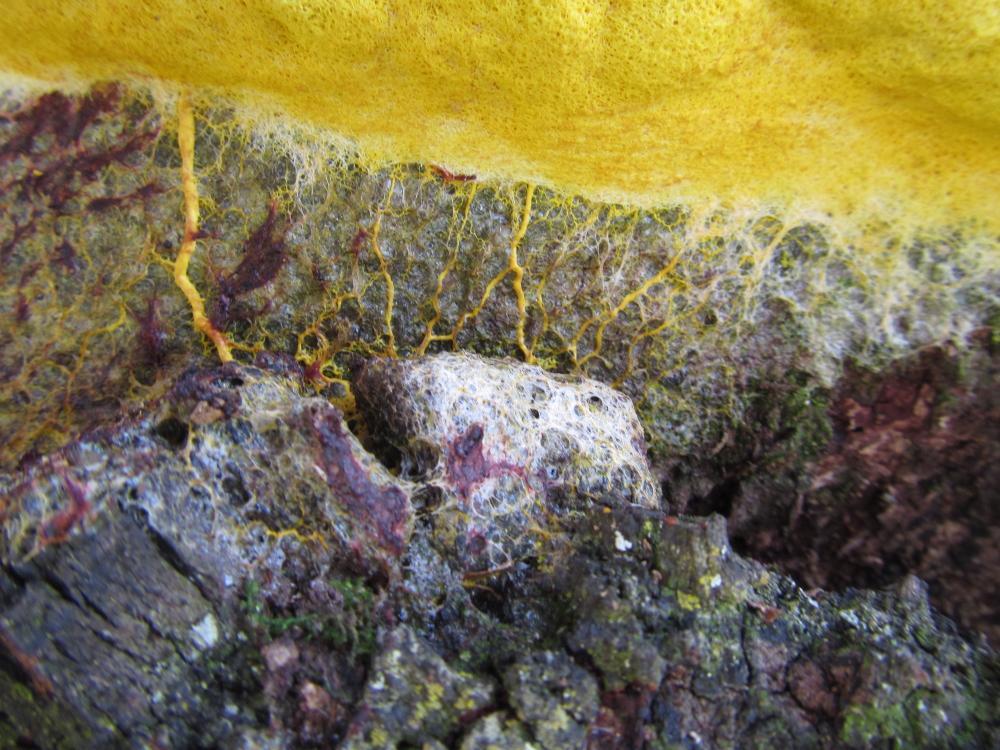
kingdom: Protozoa
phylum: Mycetozoa
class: Myxomycetes
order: Physarales
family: Physaraceae
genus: Fuligo
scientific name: Fuligo septica
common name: Dog vomit slime mold
